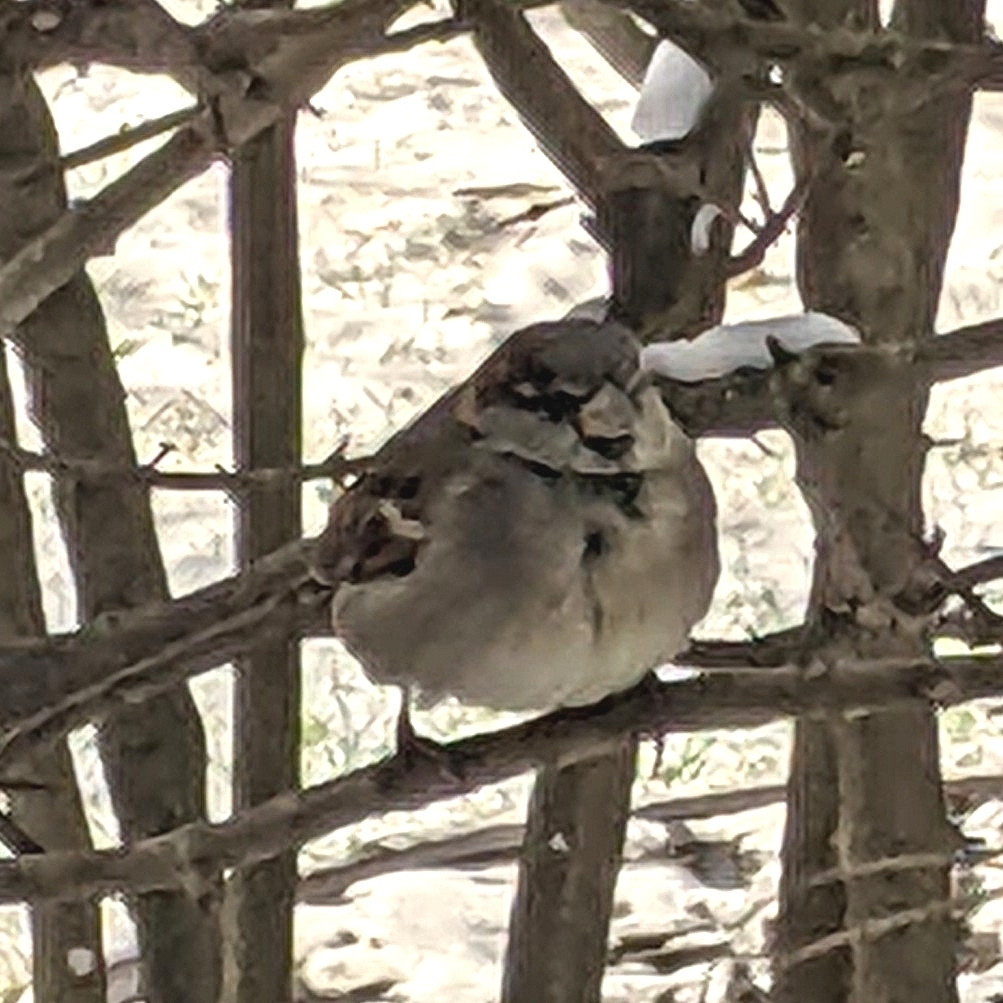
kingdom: Animalia
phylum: Chordata
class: Aves
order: Passeriformes
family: Passeridae
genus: Passer
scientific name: Passer domesticus
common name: House sparrow
